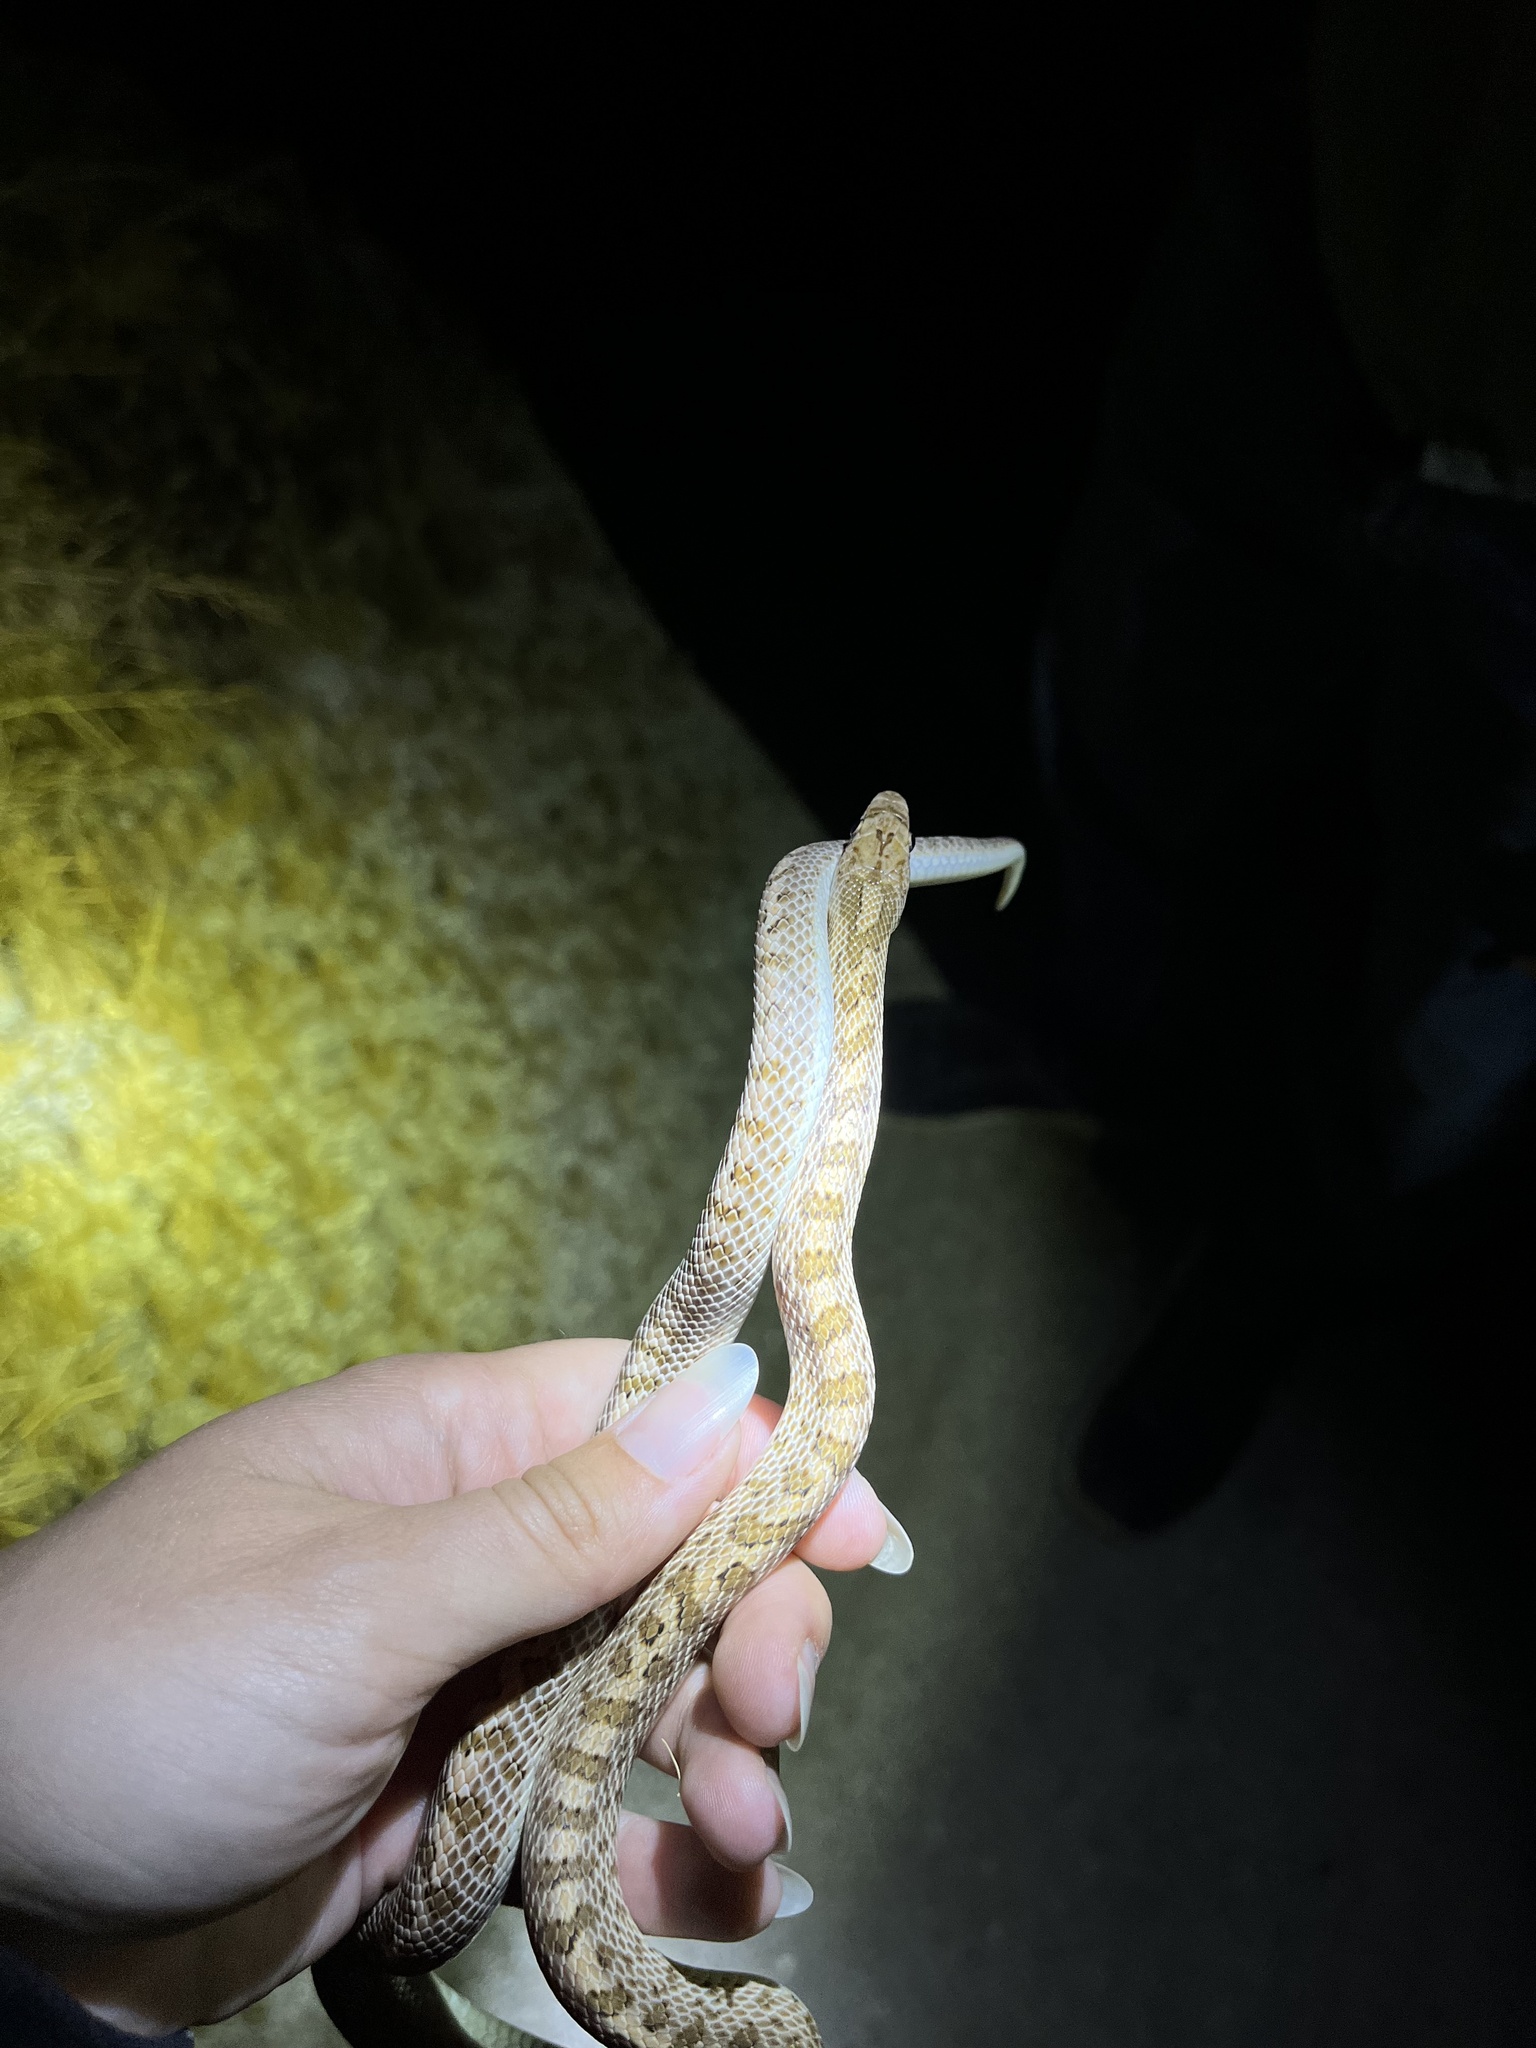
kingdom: Animalia
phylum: Chordata
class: Squamata
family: Colubridae
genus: Arizona
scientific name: Arizona elegans
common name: Glossy snake
